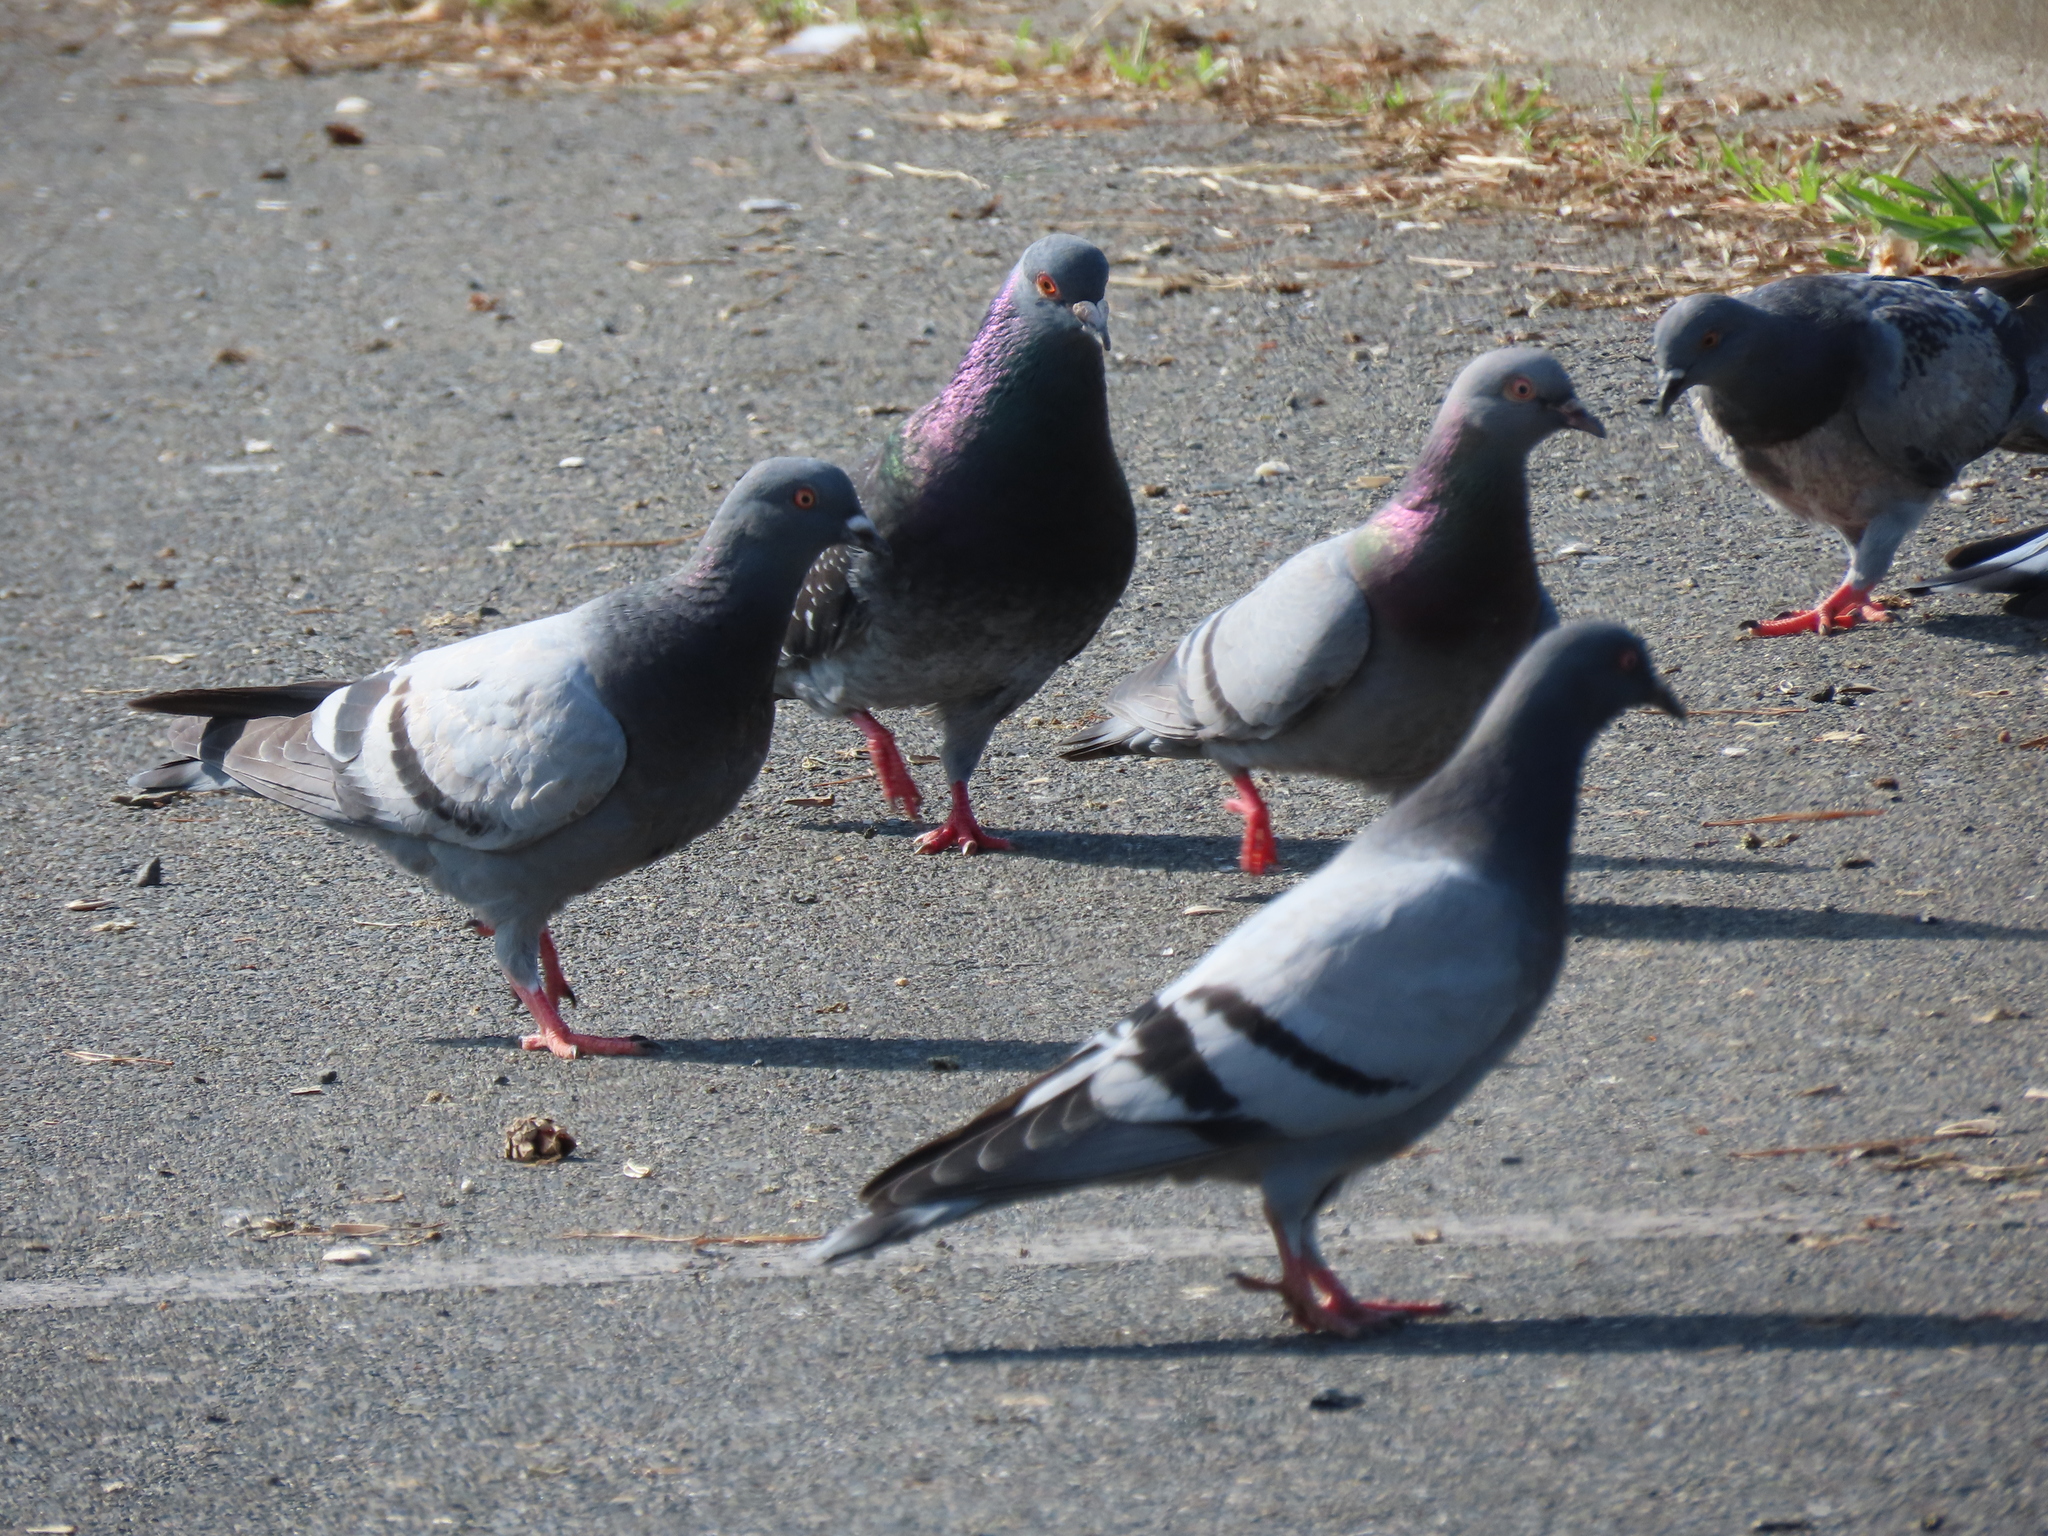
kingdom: Animalia
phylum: Chordata
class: Aves
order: Columbiformes
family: Columbidae
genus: Columba
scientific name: Columba livia
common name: Rock pigeon
